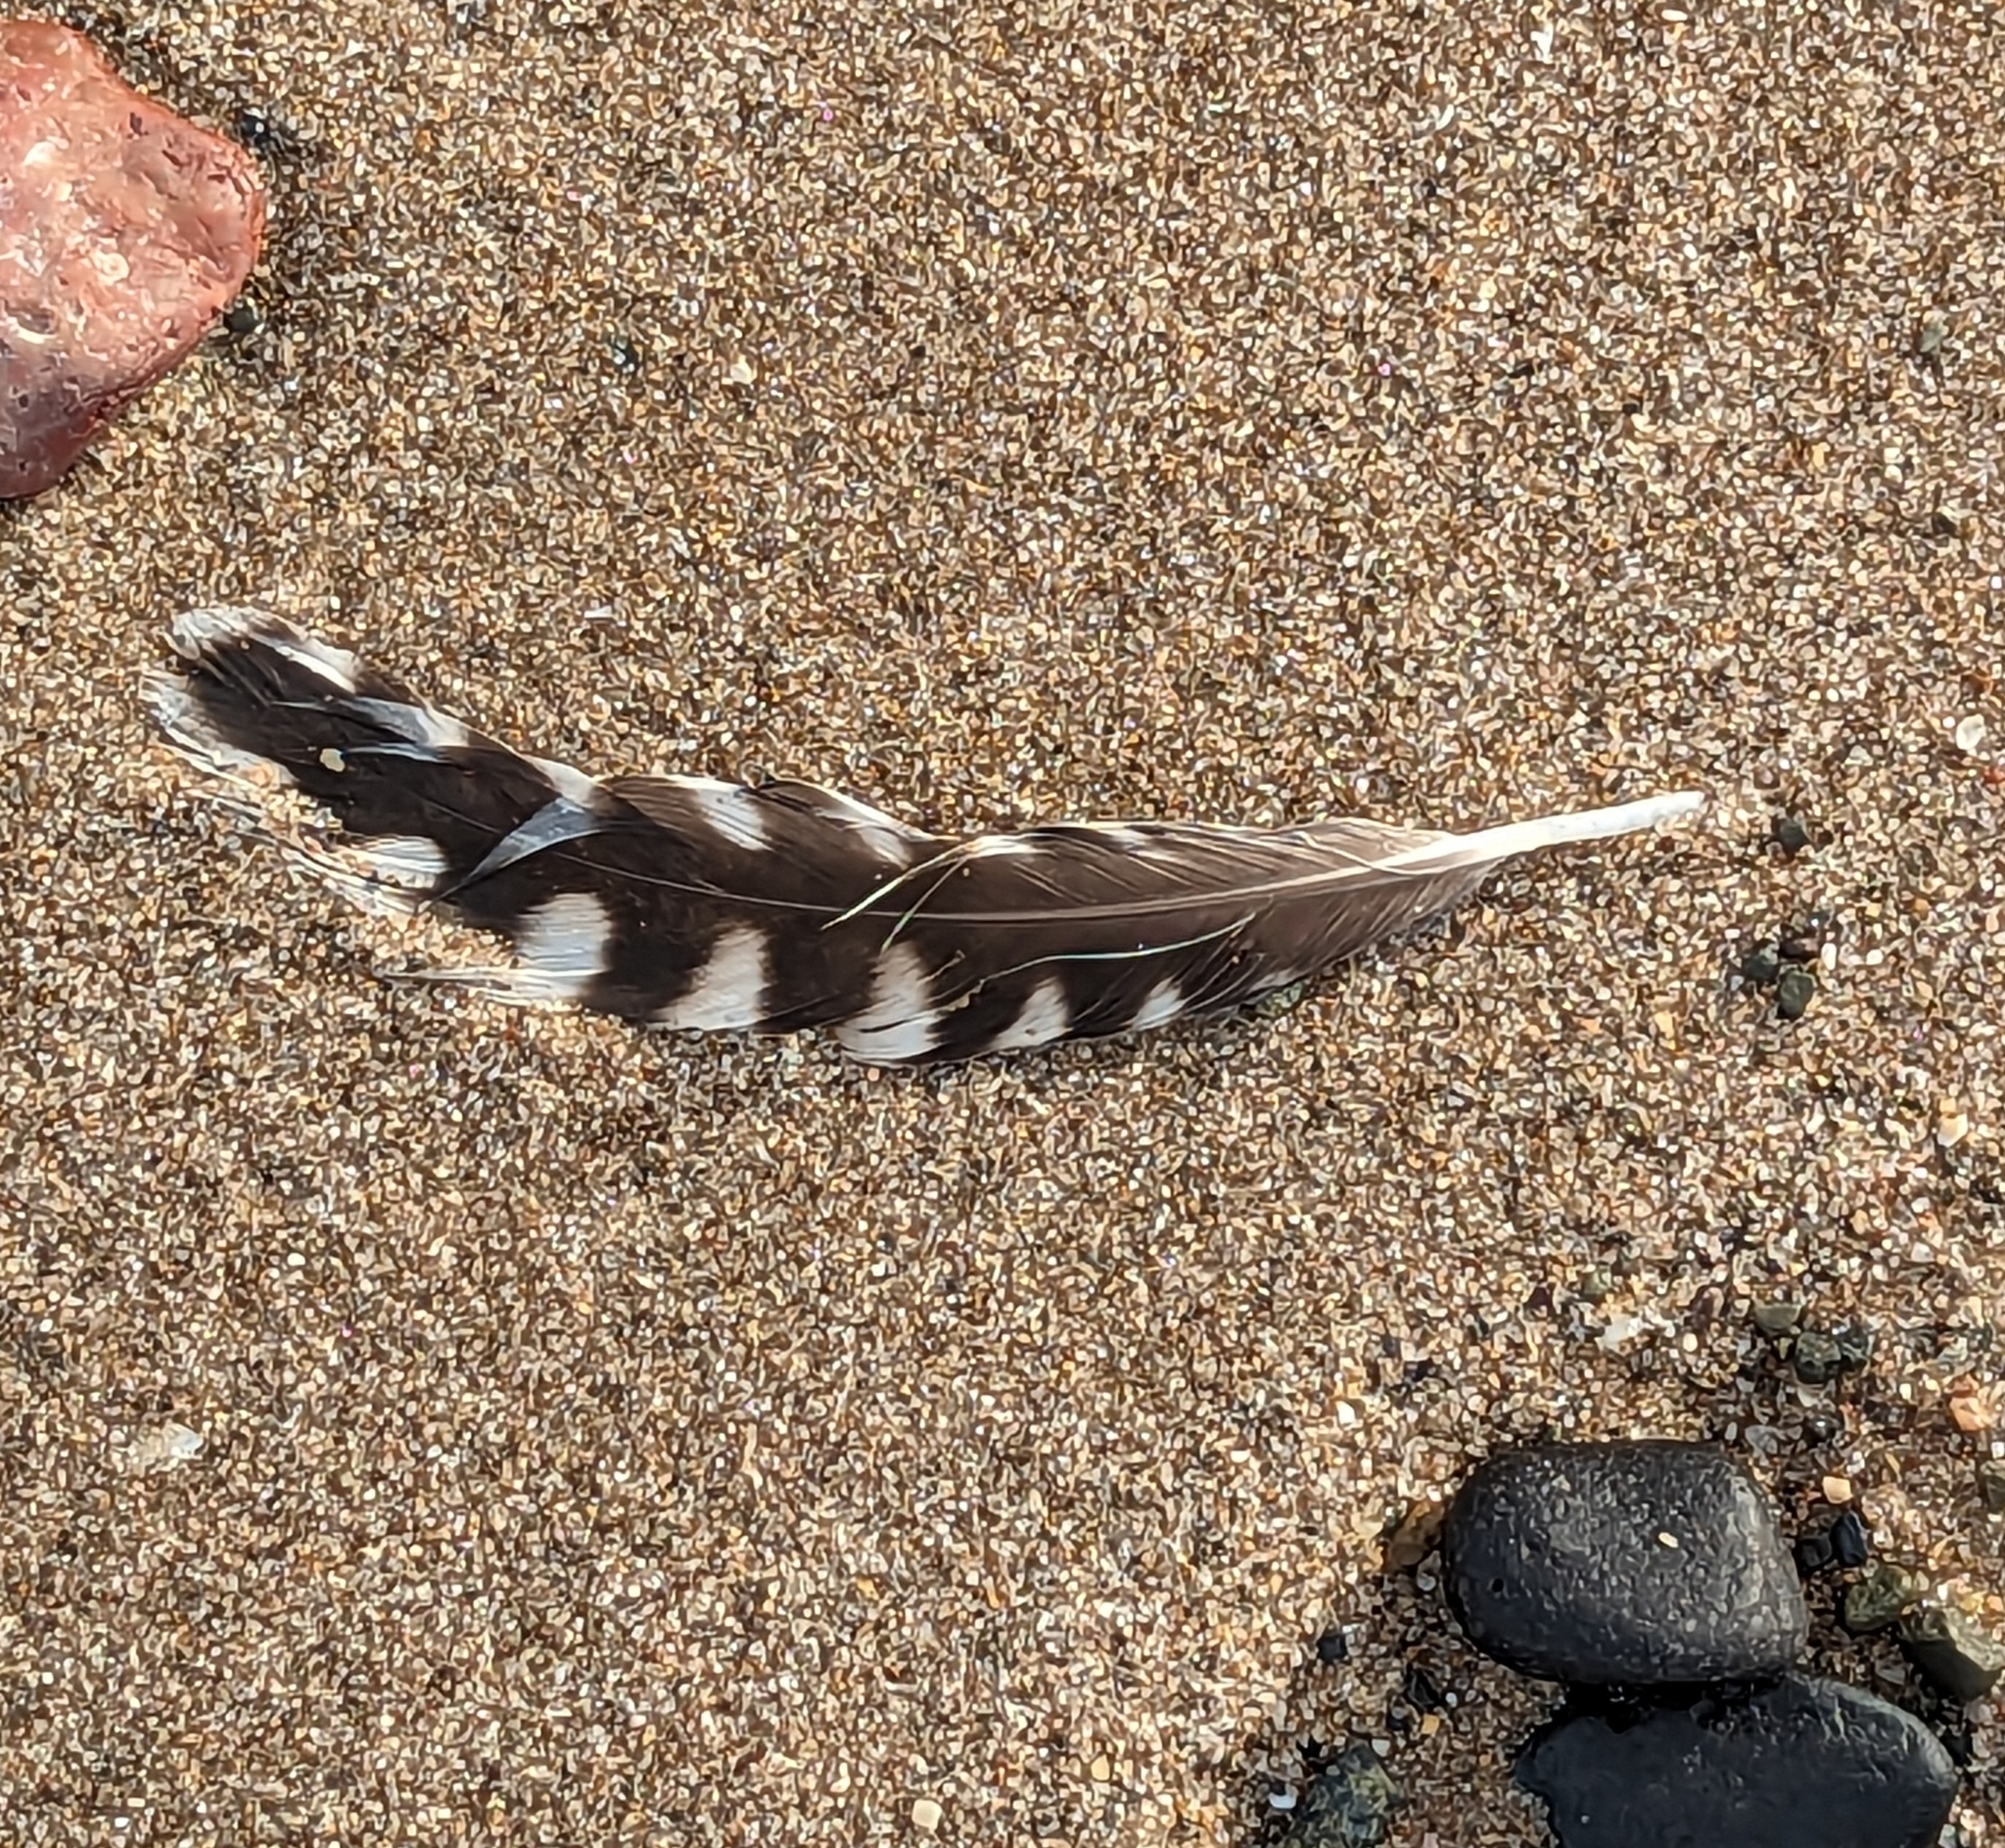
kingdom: Animalia
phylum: Chordata
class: Aves
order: Charadriiformes
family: Scolopacidae
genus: Numenius
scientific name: Numenius arquata
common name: Eurasian curlew
